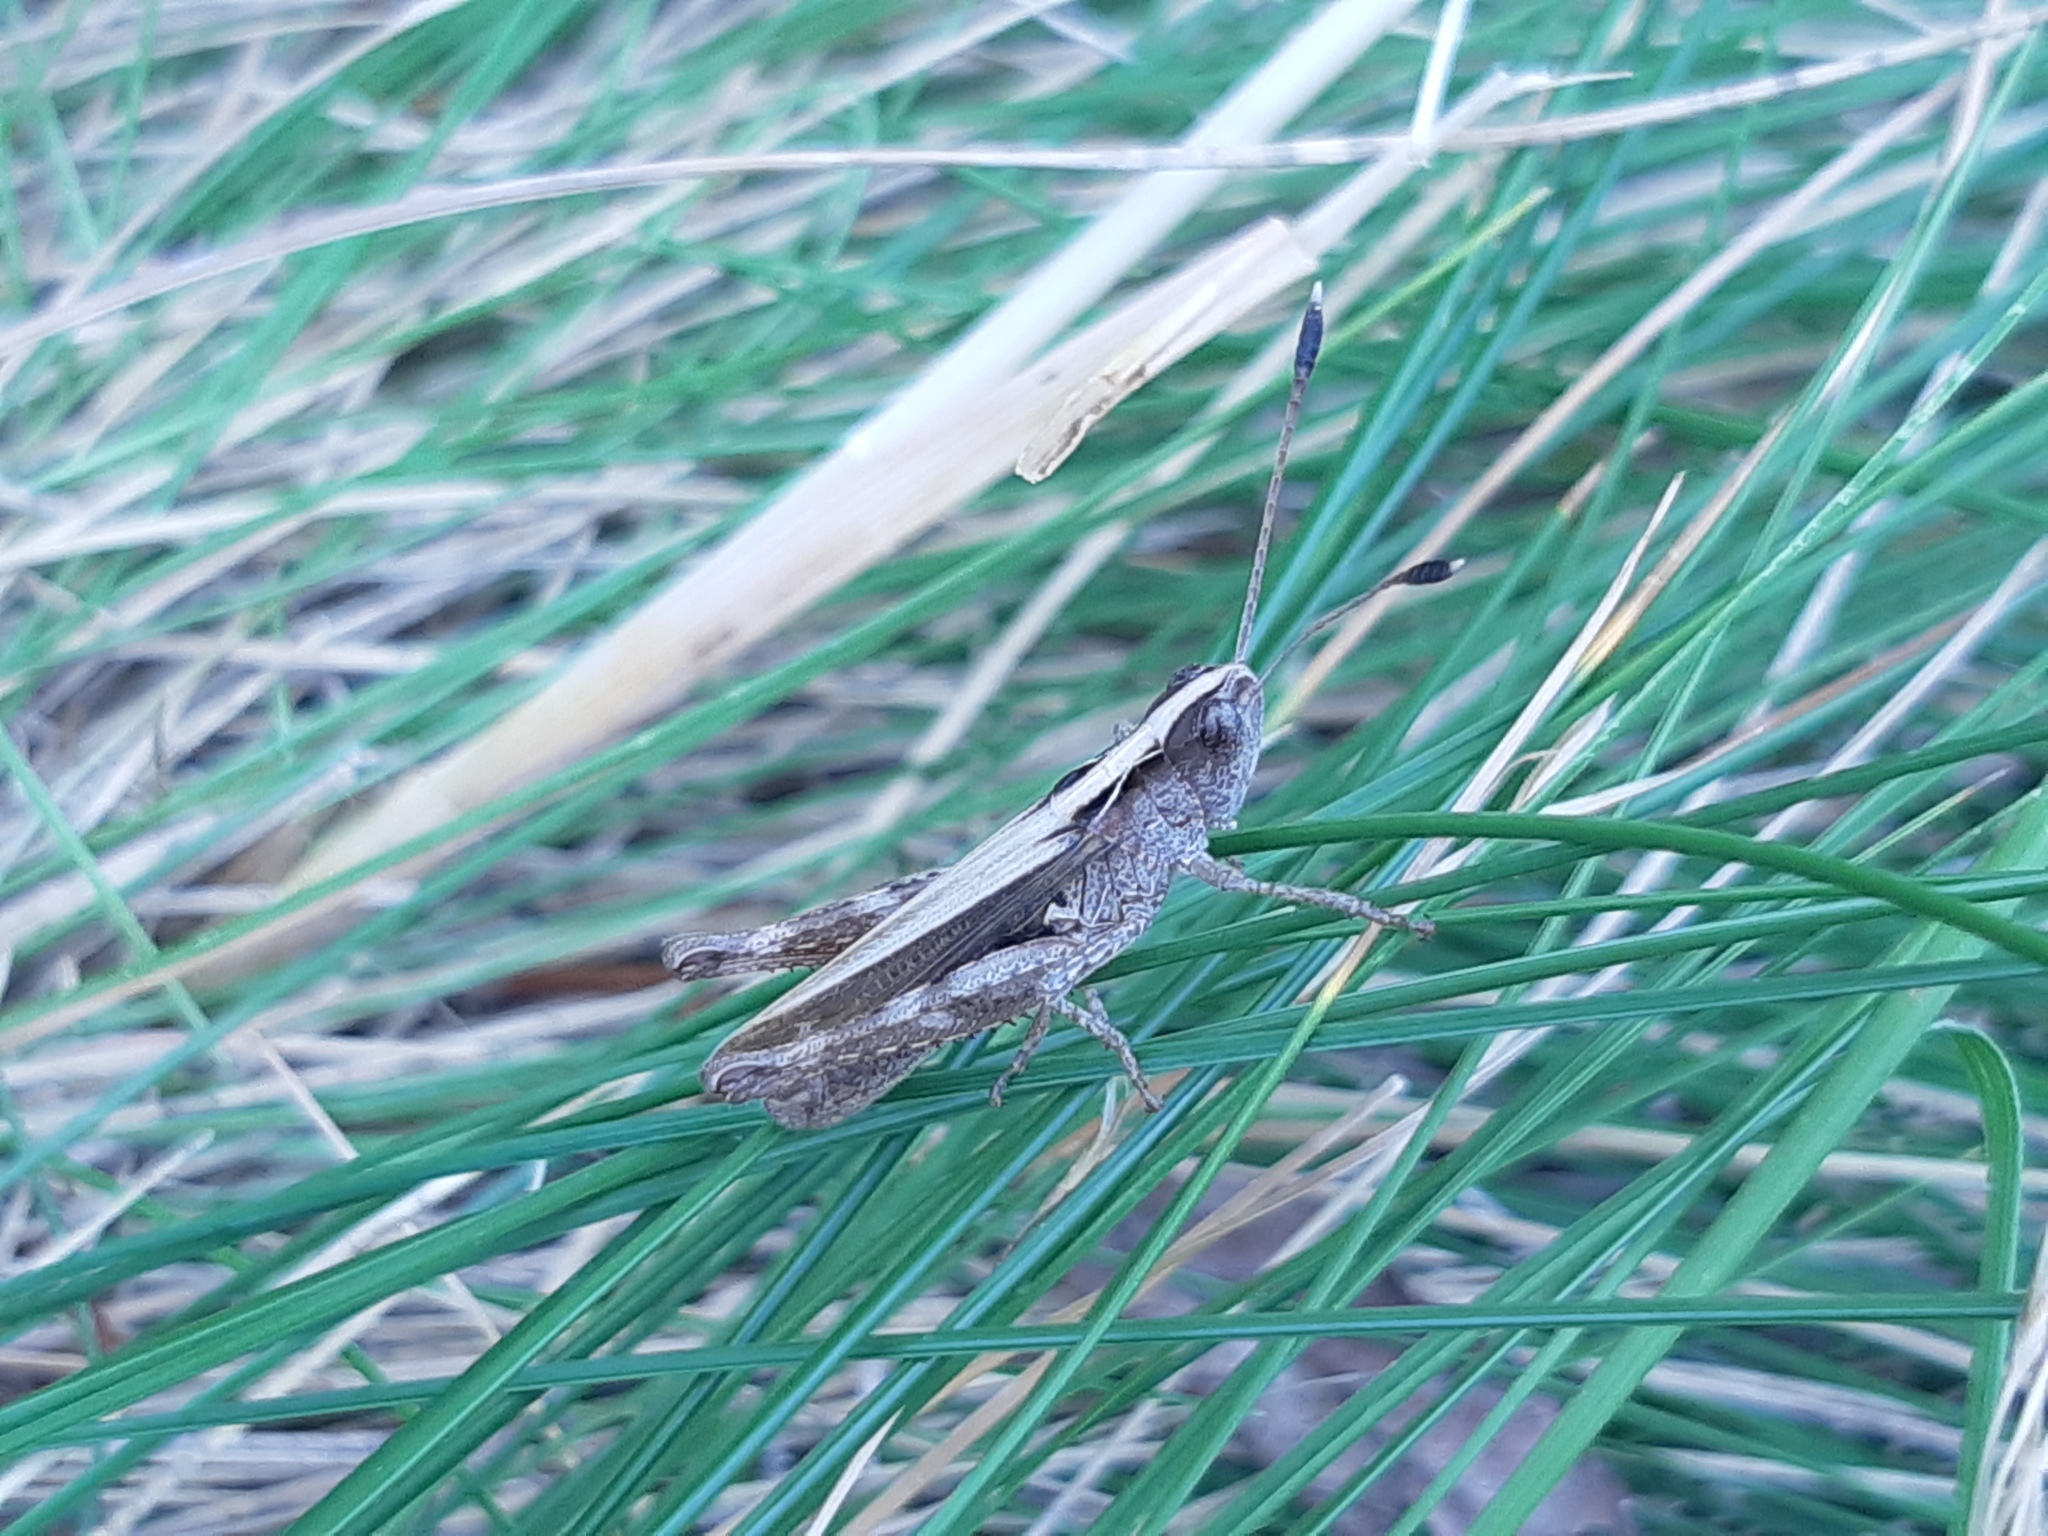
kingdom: Animalia
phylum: Arthropoda
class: Insecta
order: Orthoptera
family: Acrididae
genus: Gomphocerippus
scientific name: Gomphocerippus rufus
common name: Rufous grasshopper
